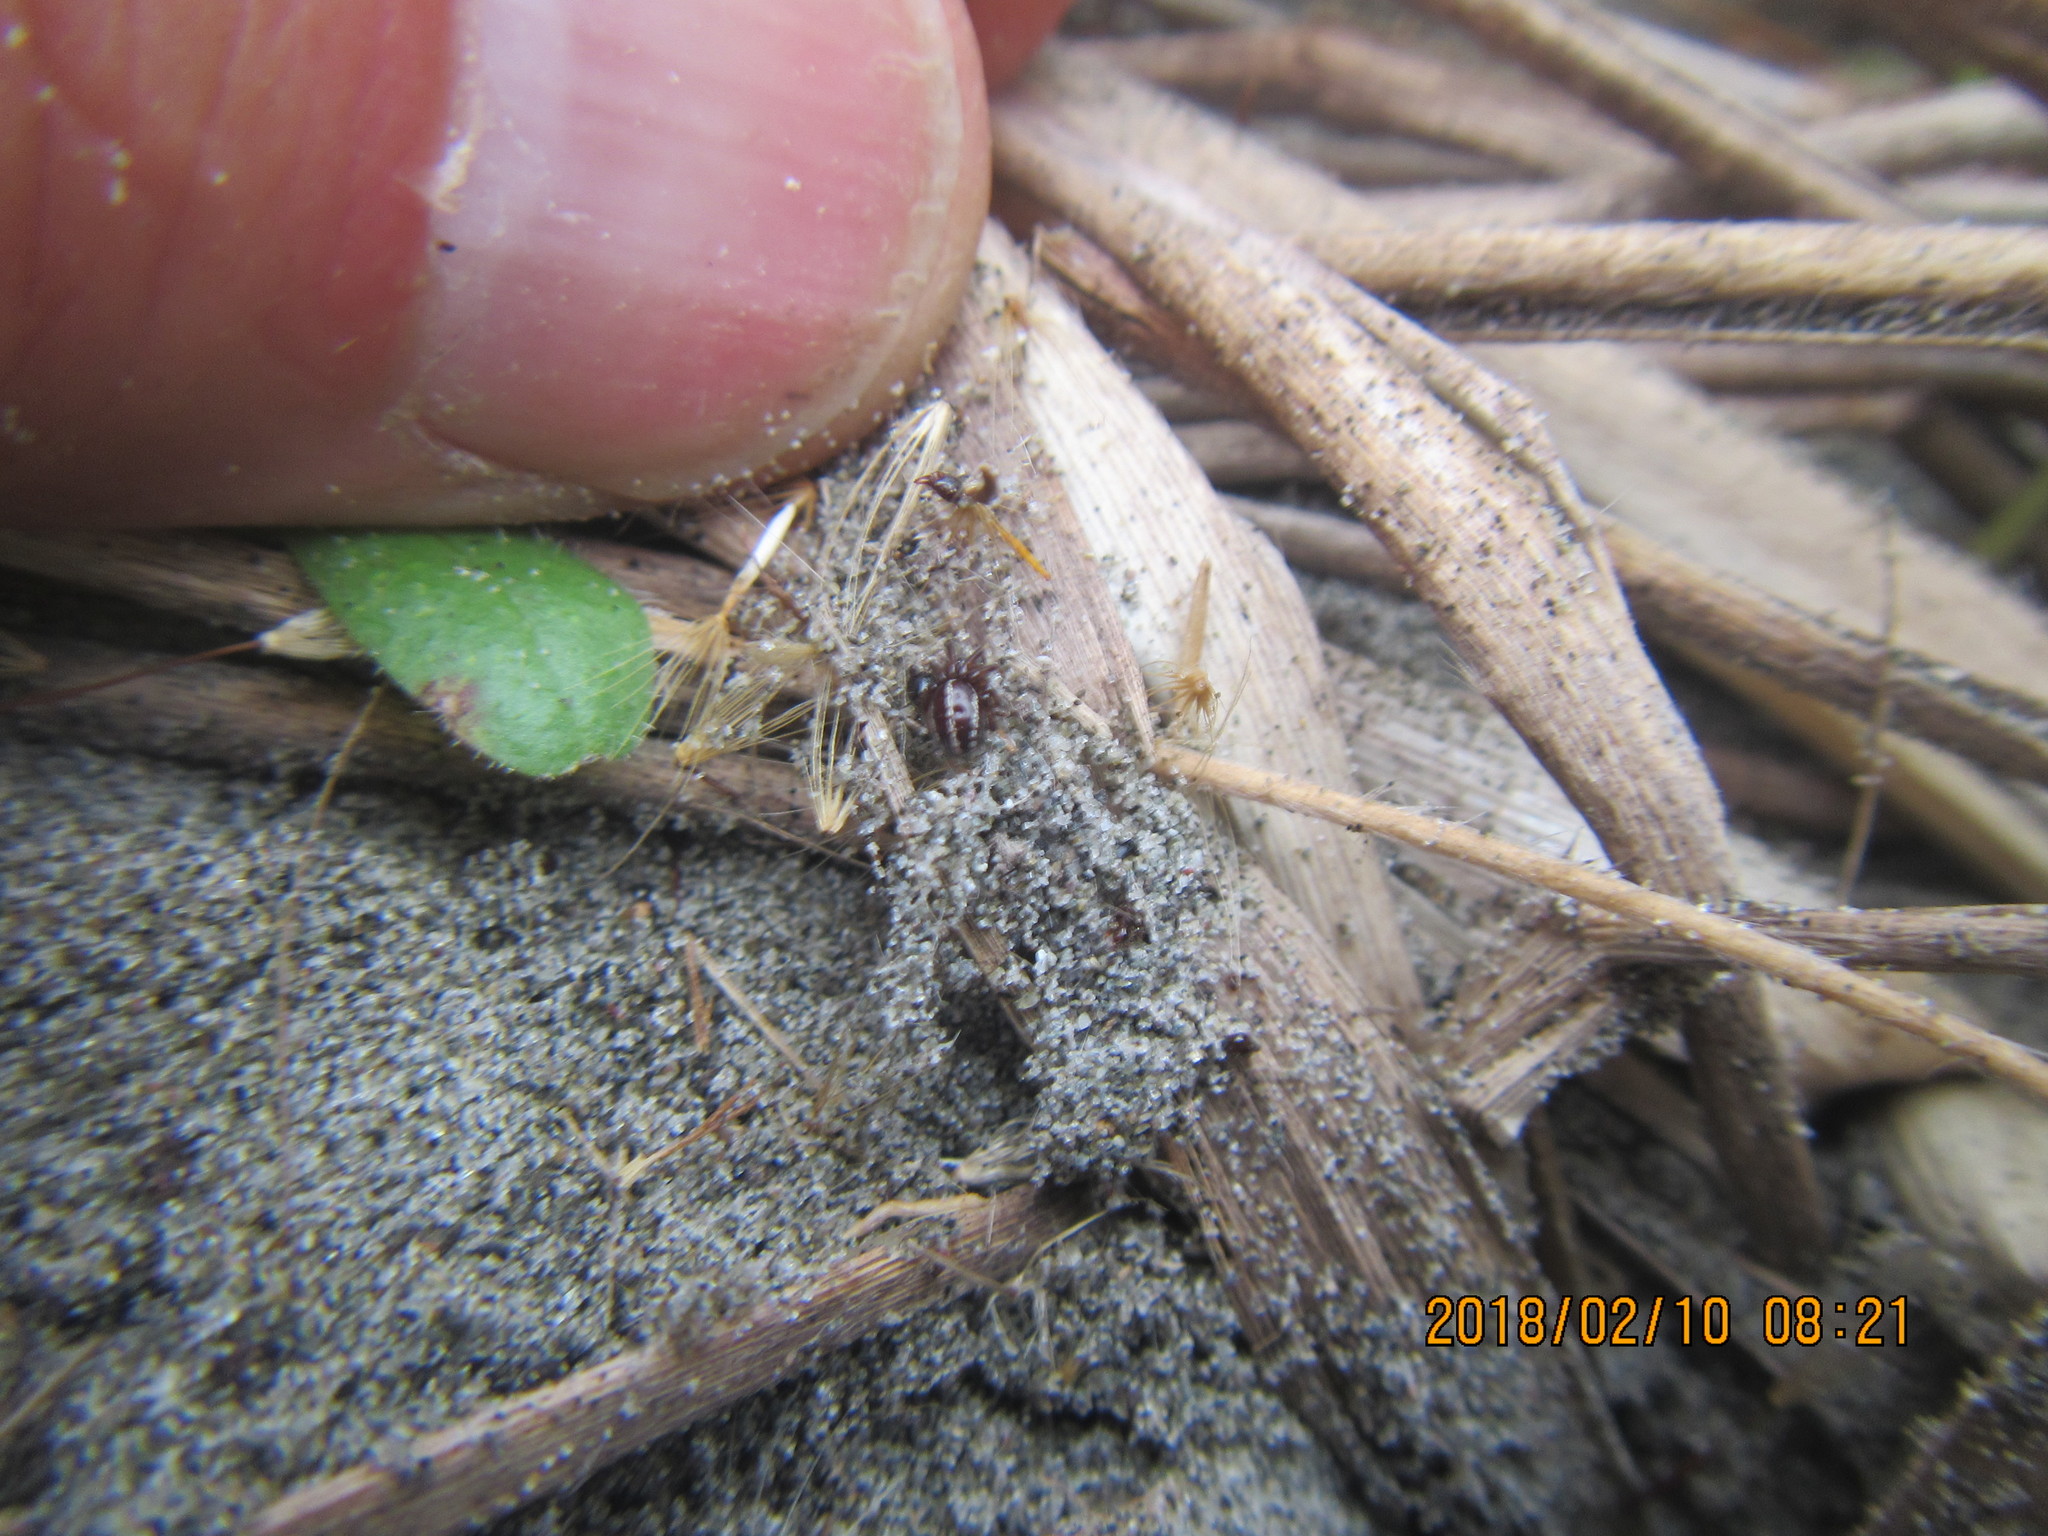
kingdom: Animalia
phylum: Arthropoda
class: Arachnida
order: Araneae
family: Theridiidae
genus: Steatoda
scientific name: Steatoda lepida
